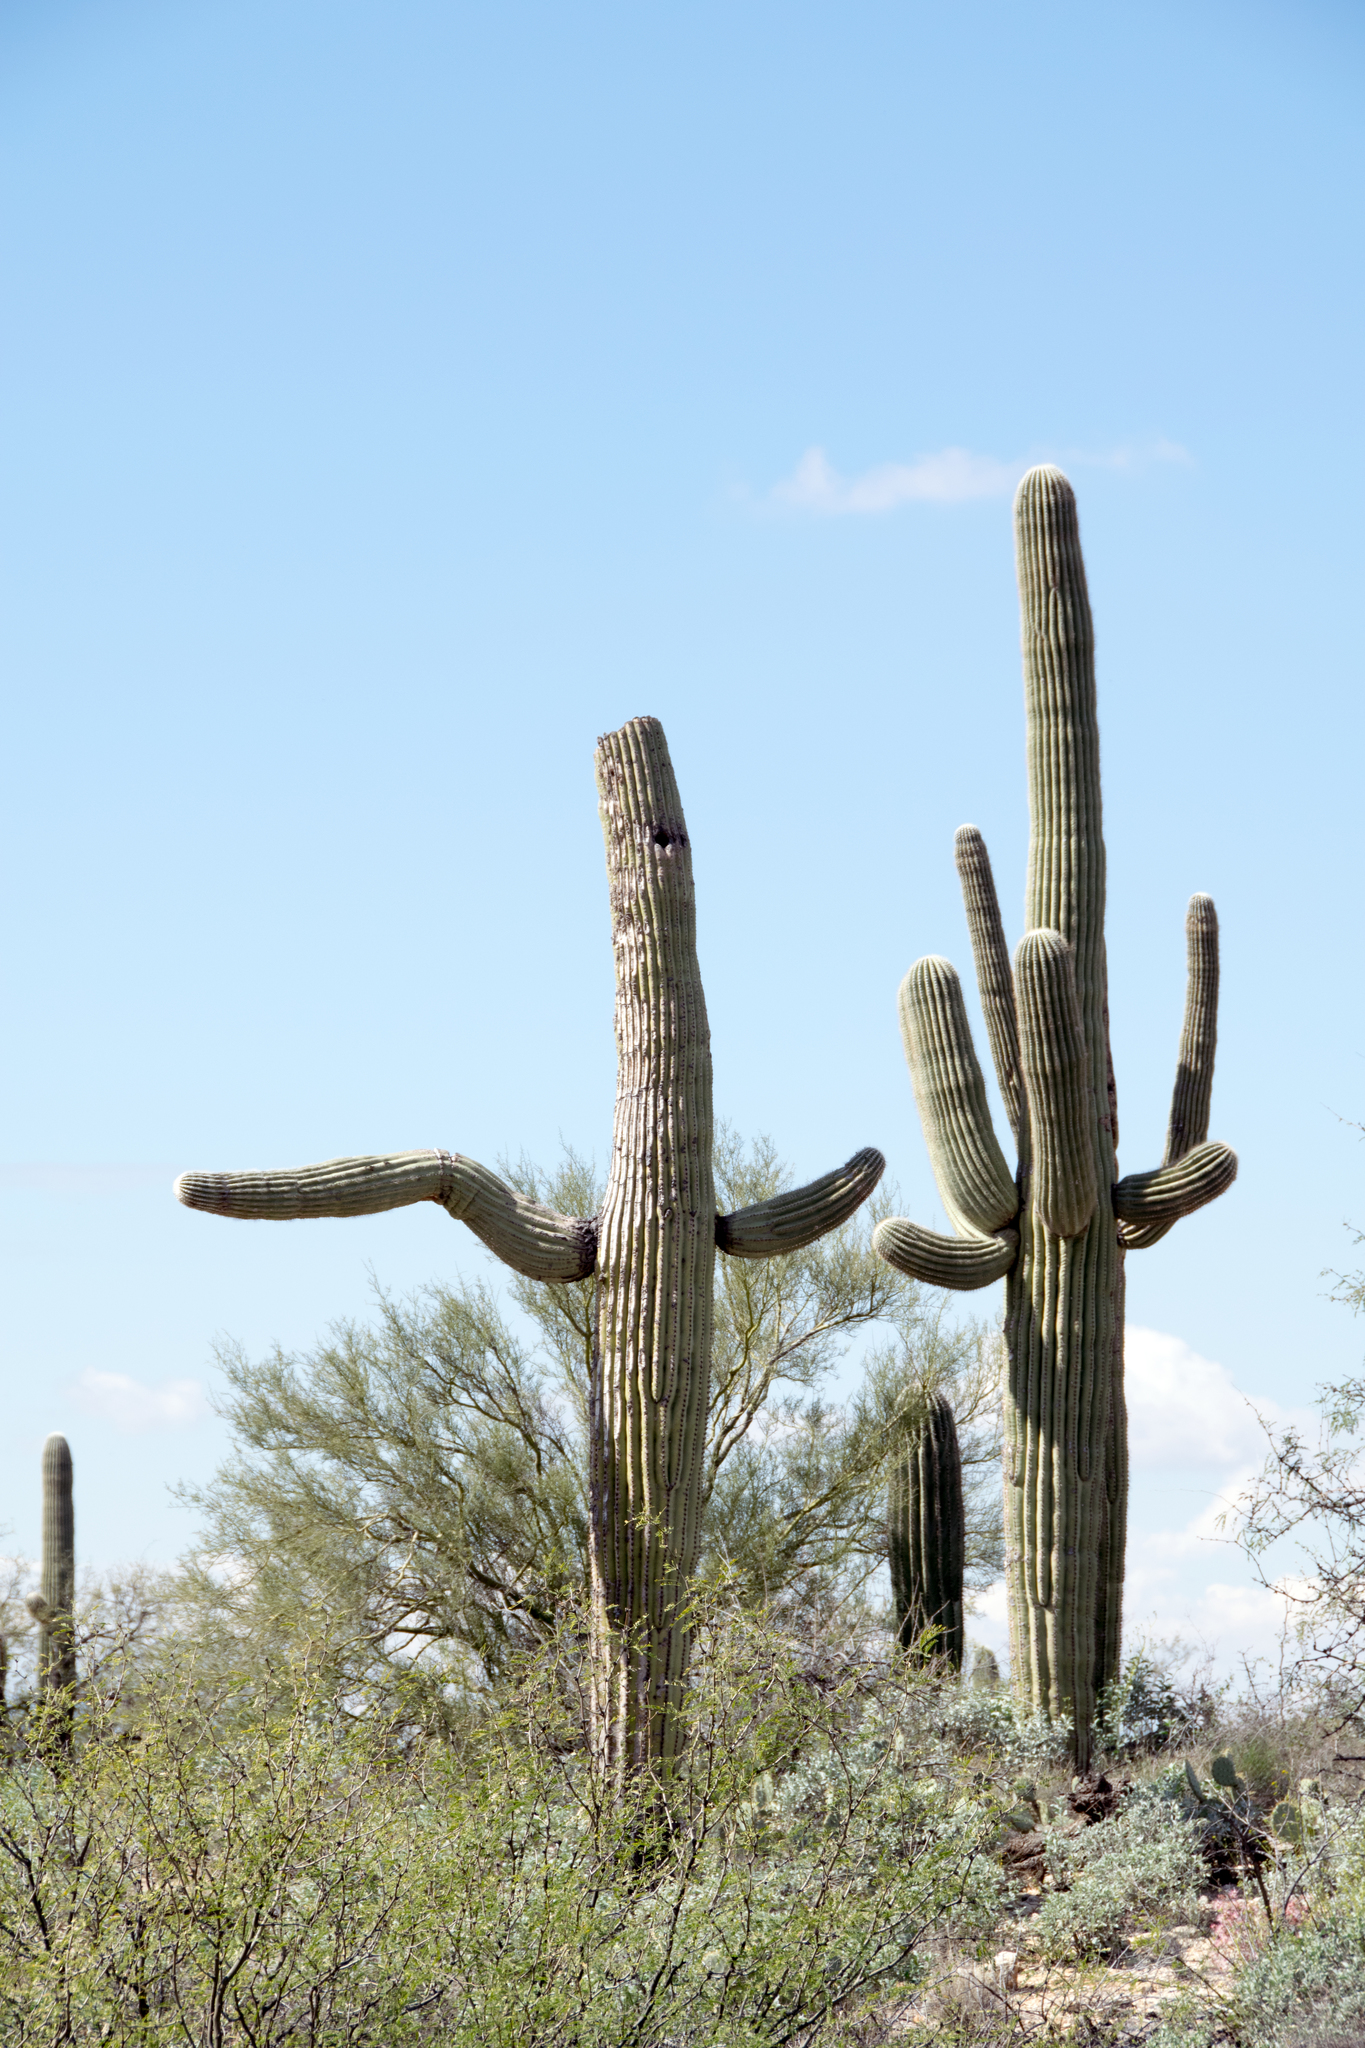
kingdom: Plantae
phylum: Tracheophyta
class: Magnoliopsida
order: Caryophyllales
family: Cactaceae
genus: Carnegiea
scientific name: Carnegiea gigantea
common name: Saguaro
